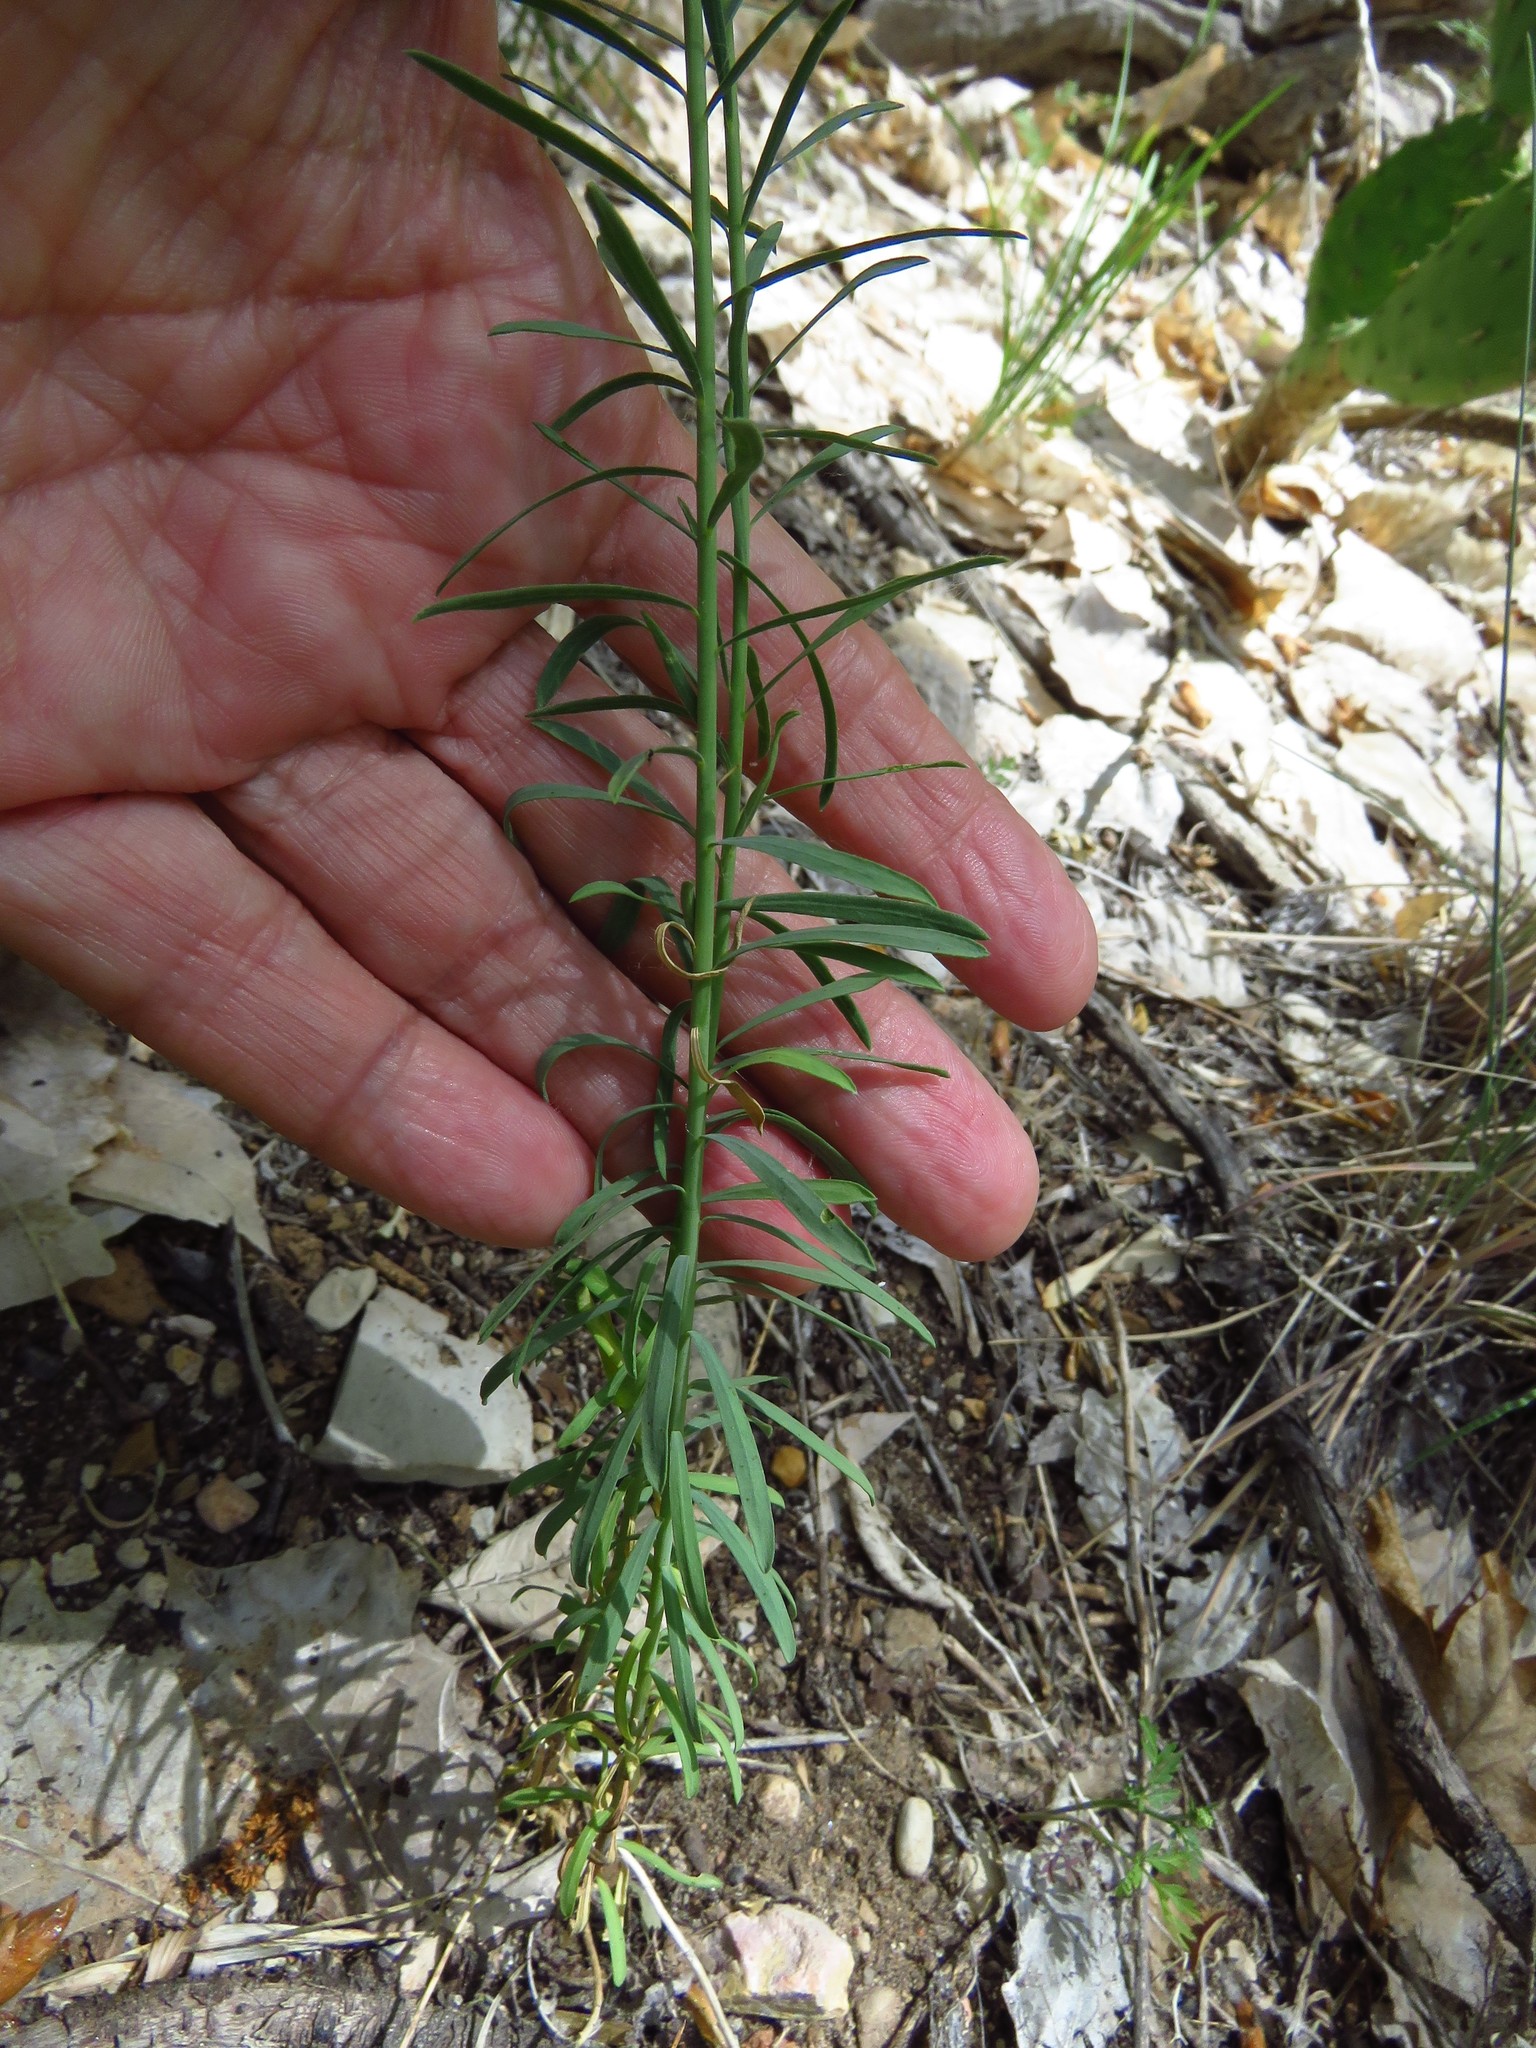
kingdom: Plantae
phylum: Tracheophyta
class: Magnoliopsida
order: Malpighiales
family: Linaceae
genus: Linum
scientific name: Linum lewisii
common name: Prairie flax
